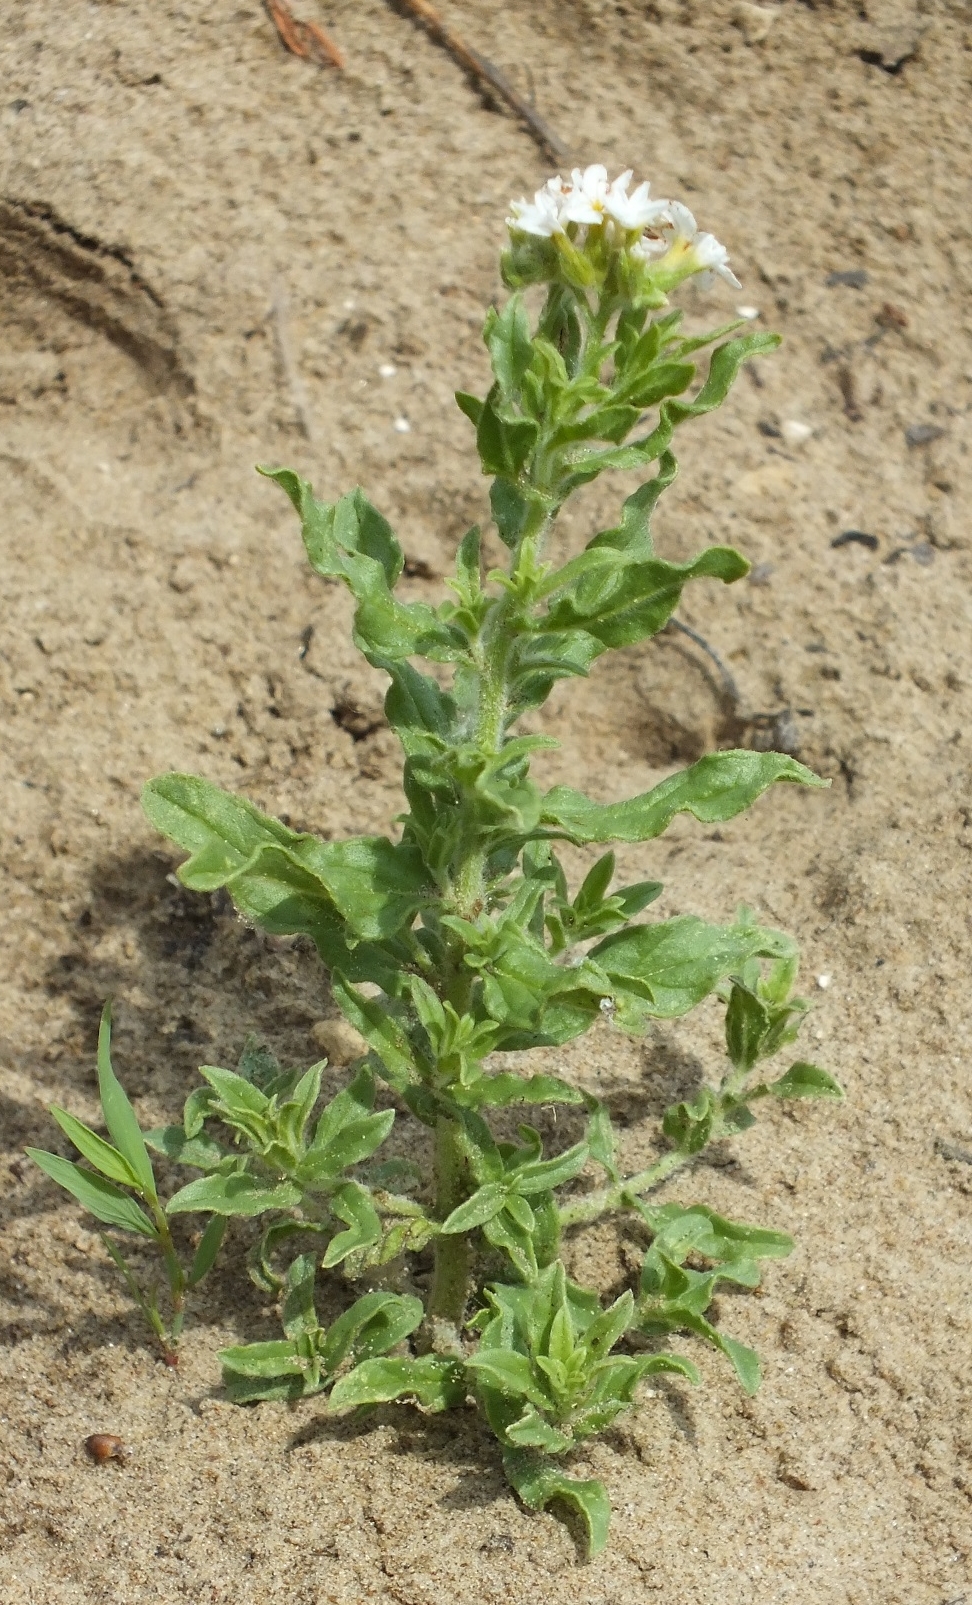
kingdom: Plantae
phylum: Tracheophyta
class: Magnoliopsida
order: Boraginales
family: Heliotropiaceae
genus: Tournefortia
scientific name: Tournefortia sibirica
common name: Siberian sea rosemary
